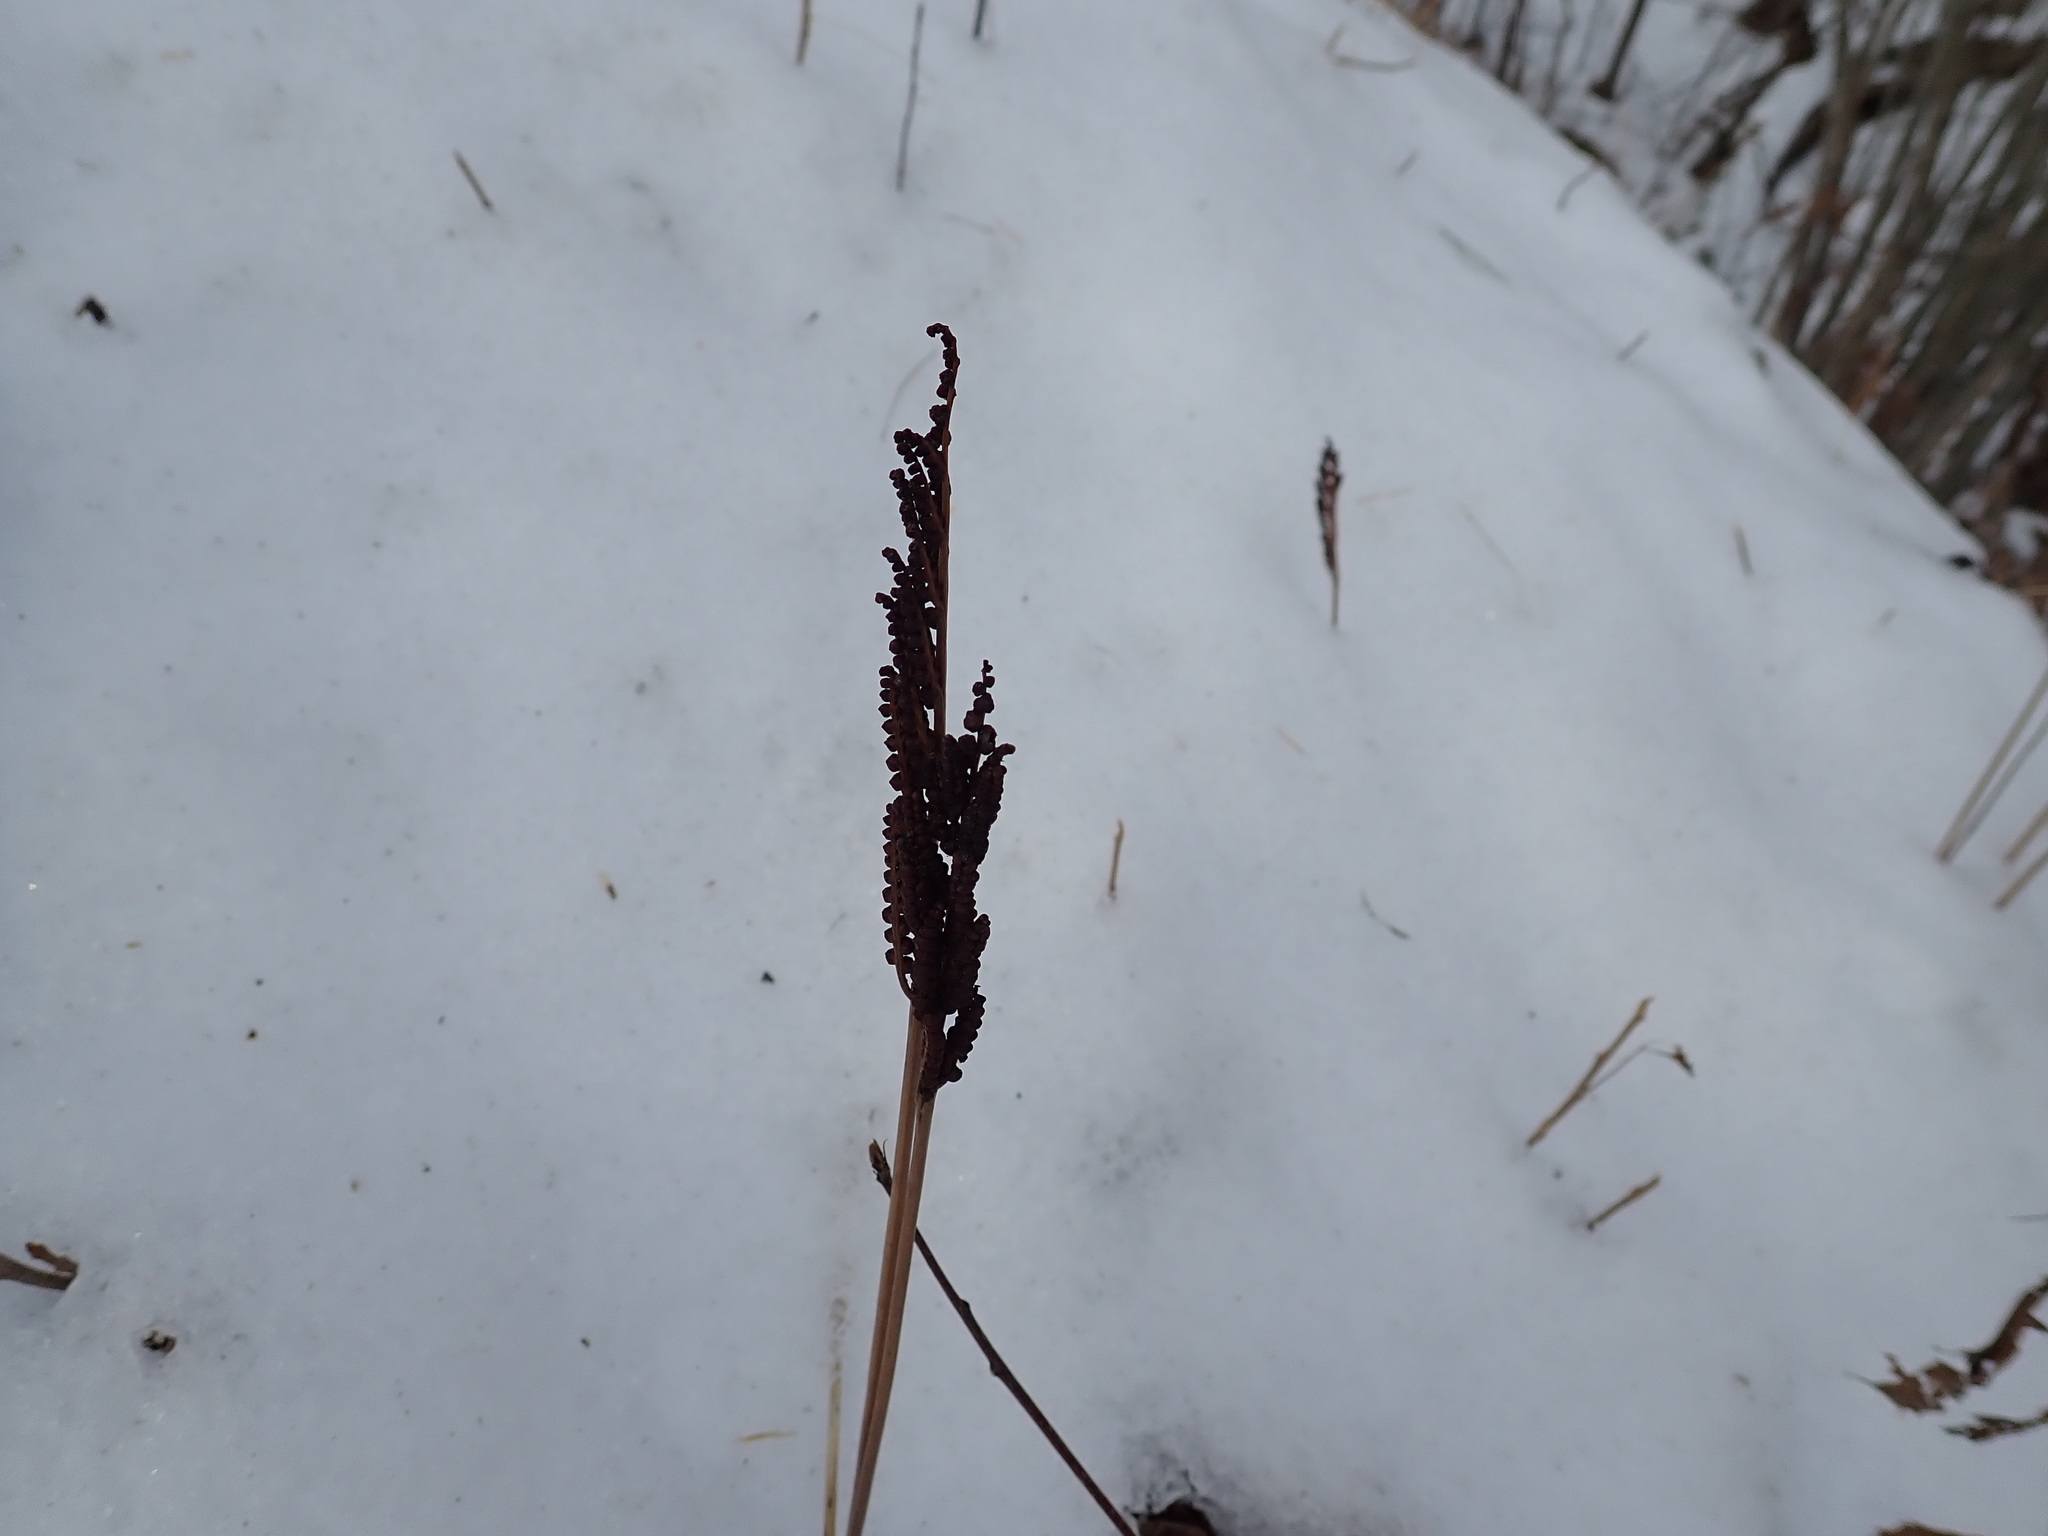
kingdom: Plantae
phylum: Tracheophyta
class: Polypodiopsida
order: Polypodiales
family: Onocleaceae
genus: Onoclea
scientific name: Onoclea sensibilis
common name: Sensitive fern
